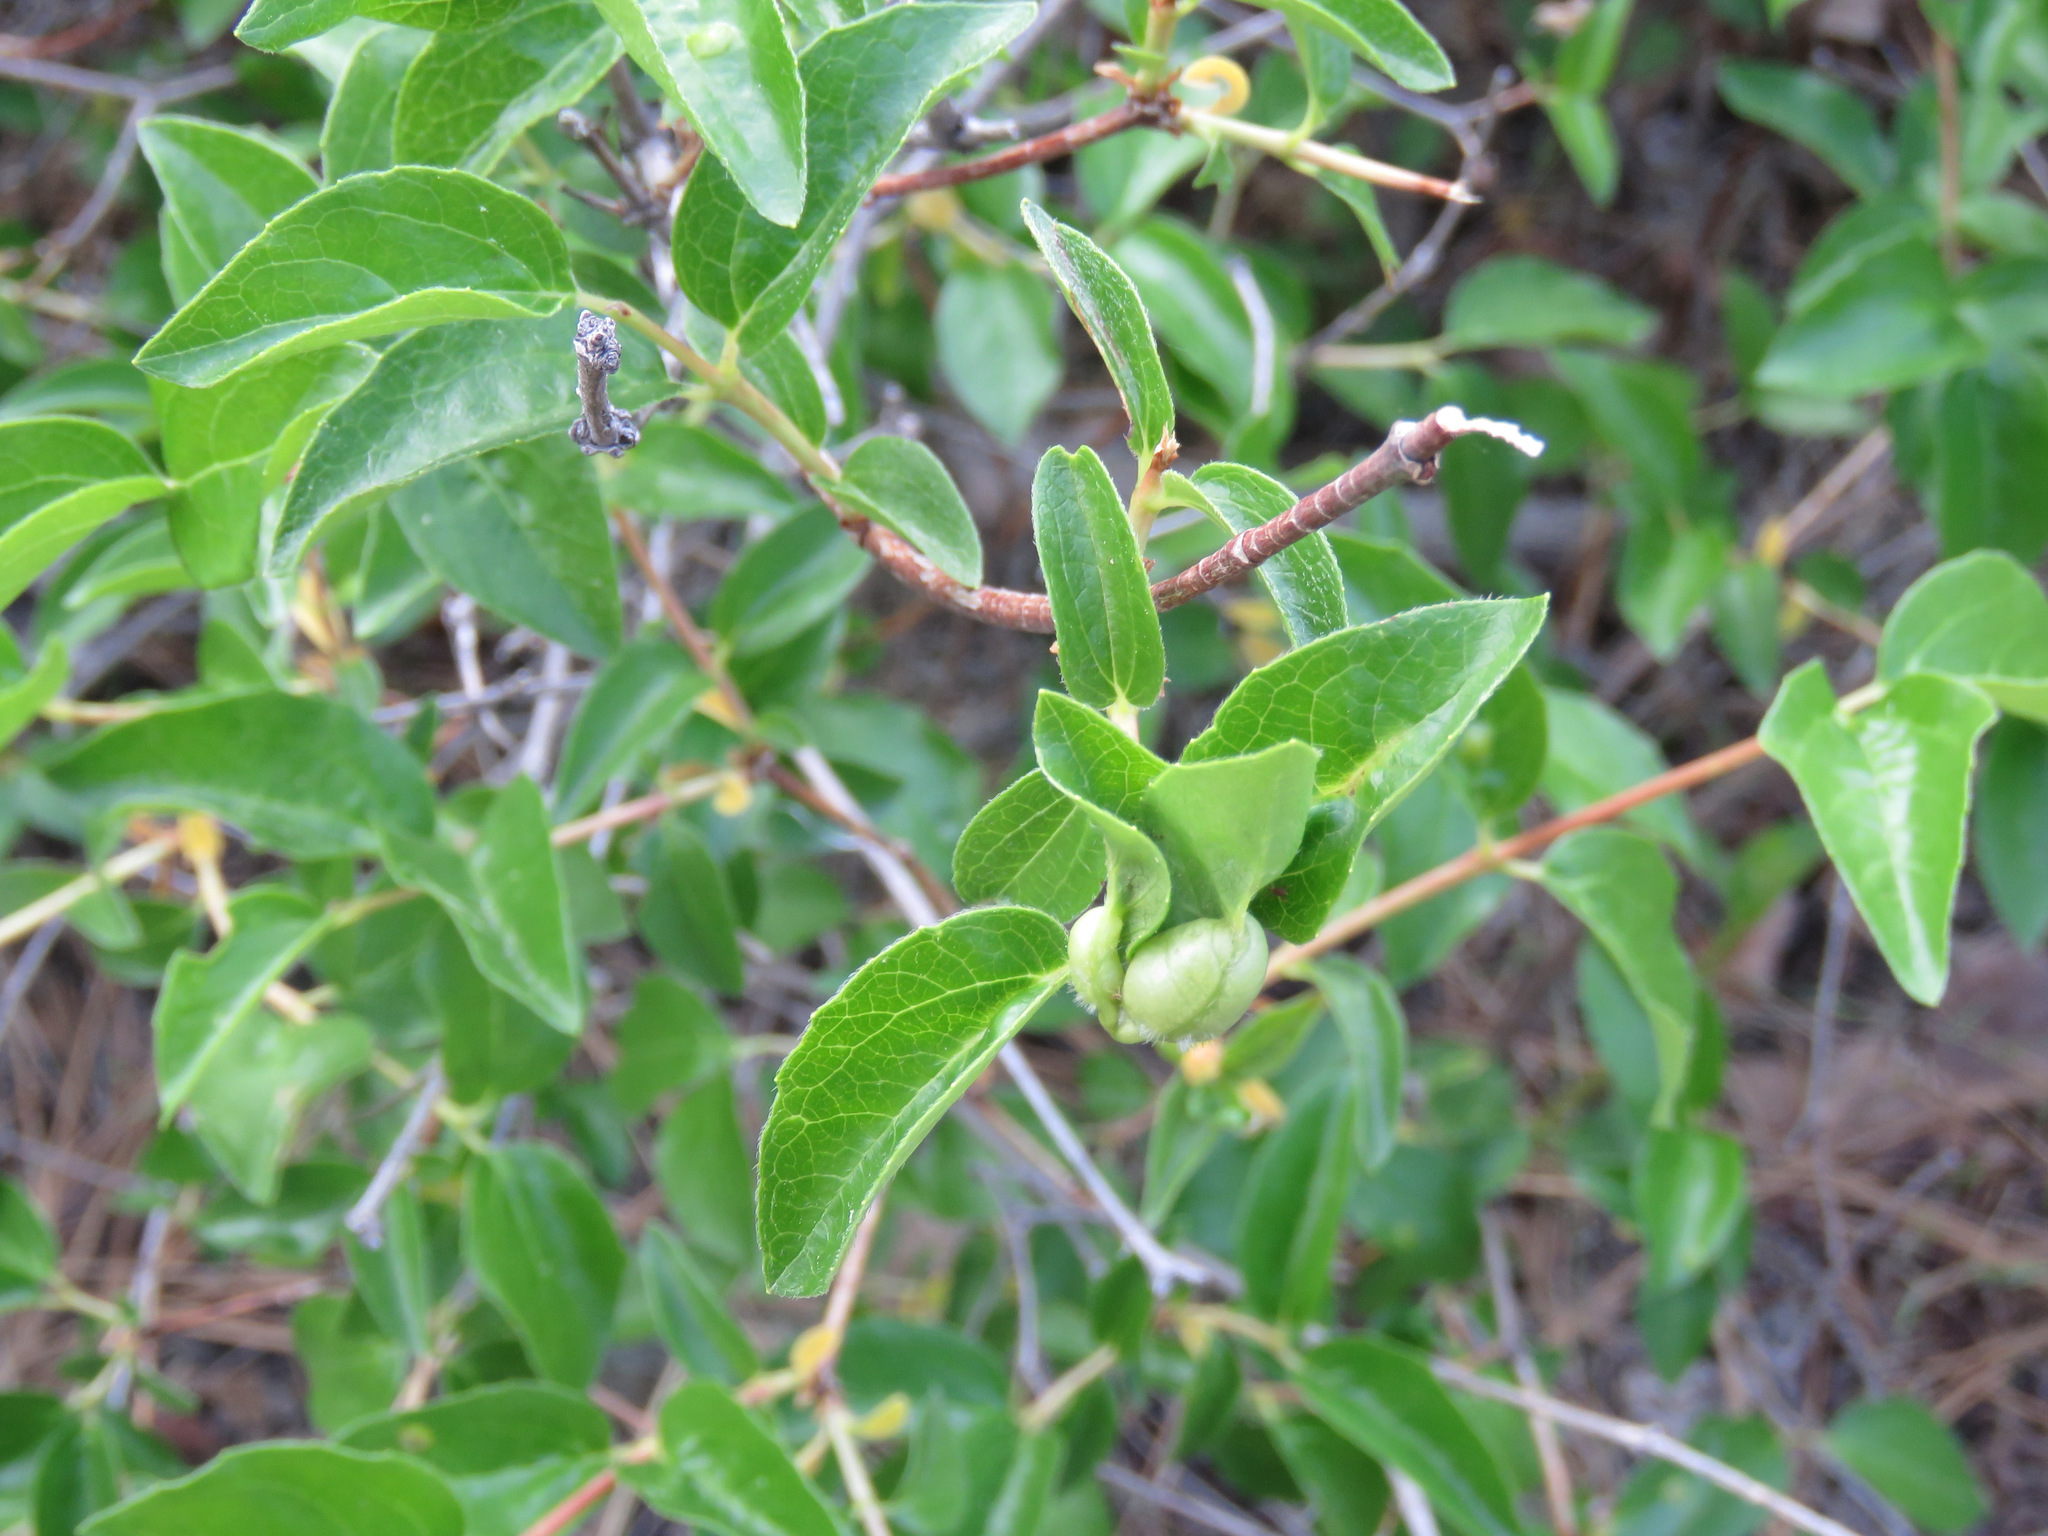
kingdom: Plantae
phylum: Tracheophyta
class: Magnoliopsida
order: Cornales
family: Hydrangeaceae
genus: Philadelphus
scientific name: Philadelphus lewisii
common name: Lewis's mock orange
